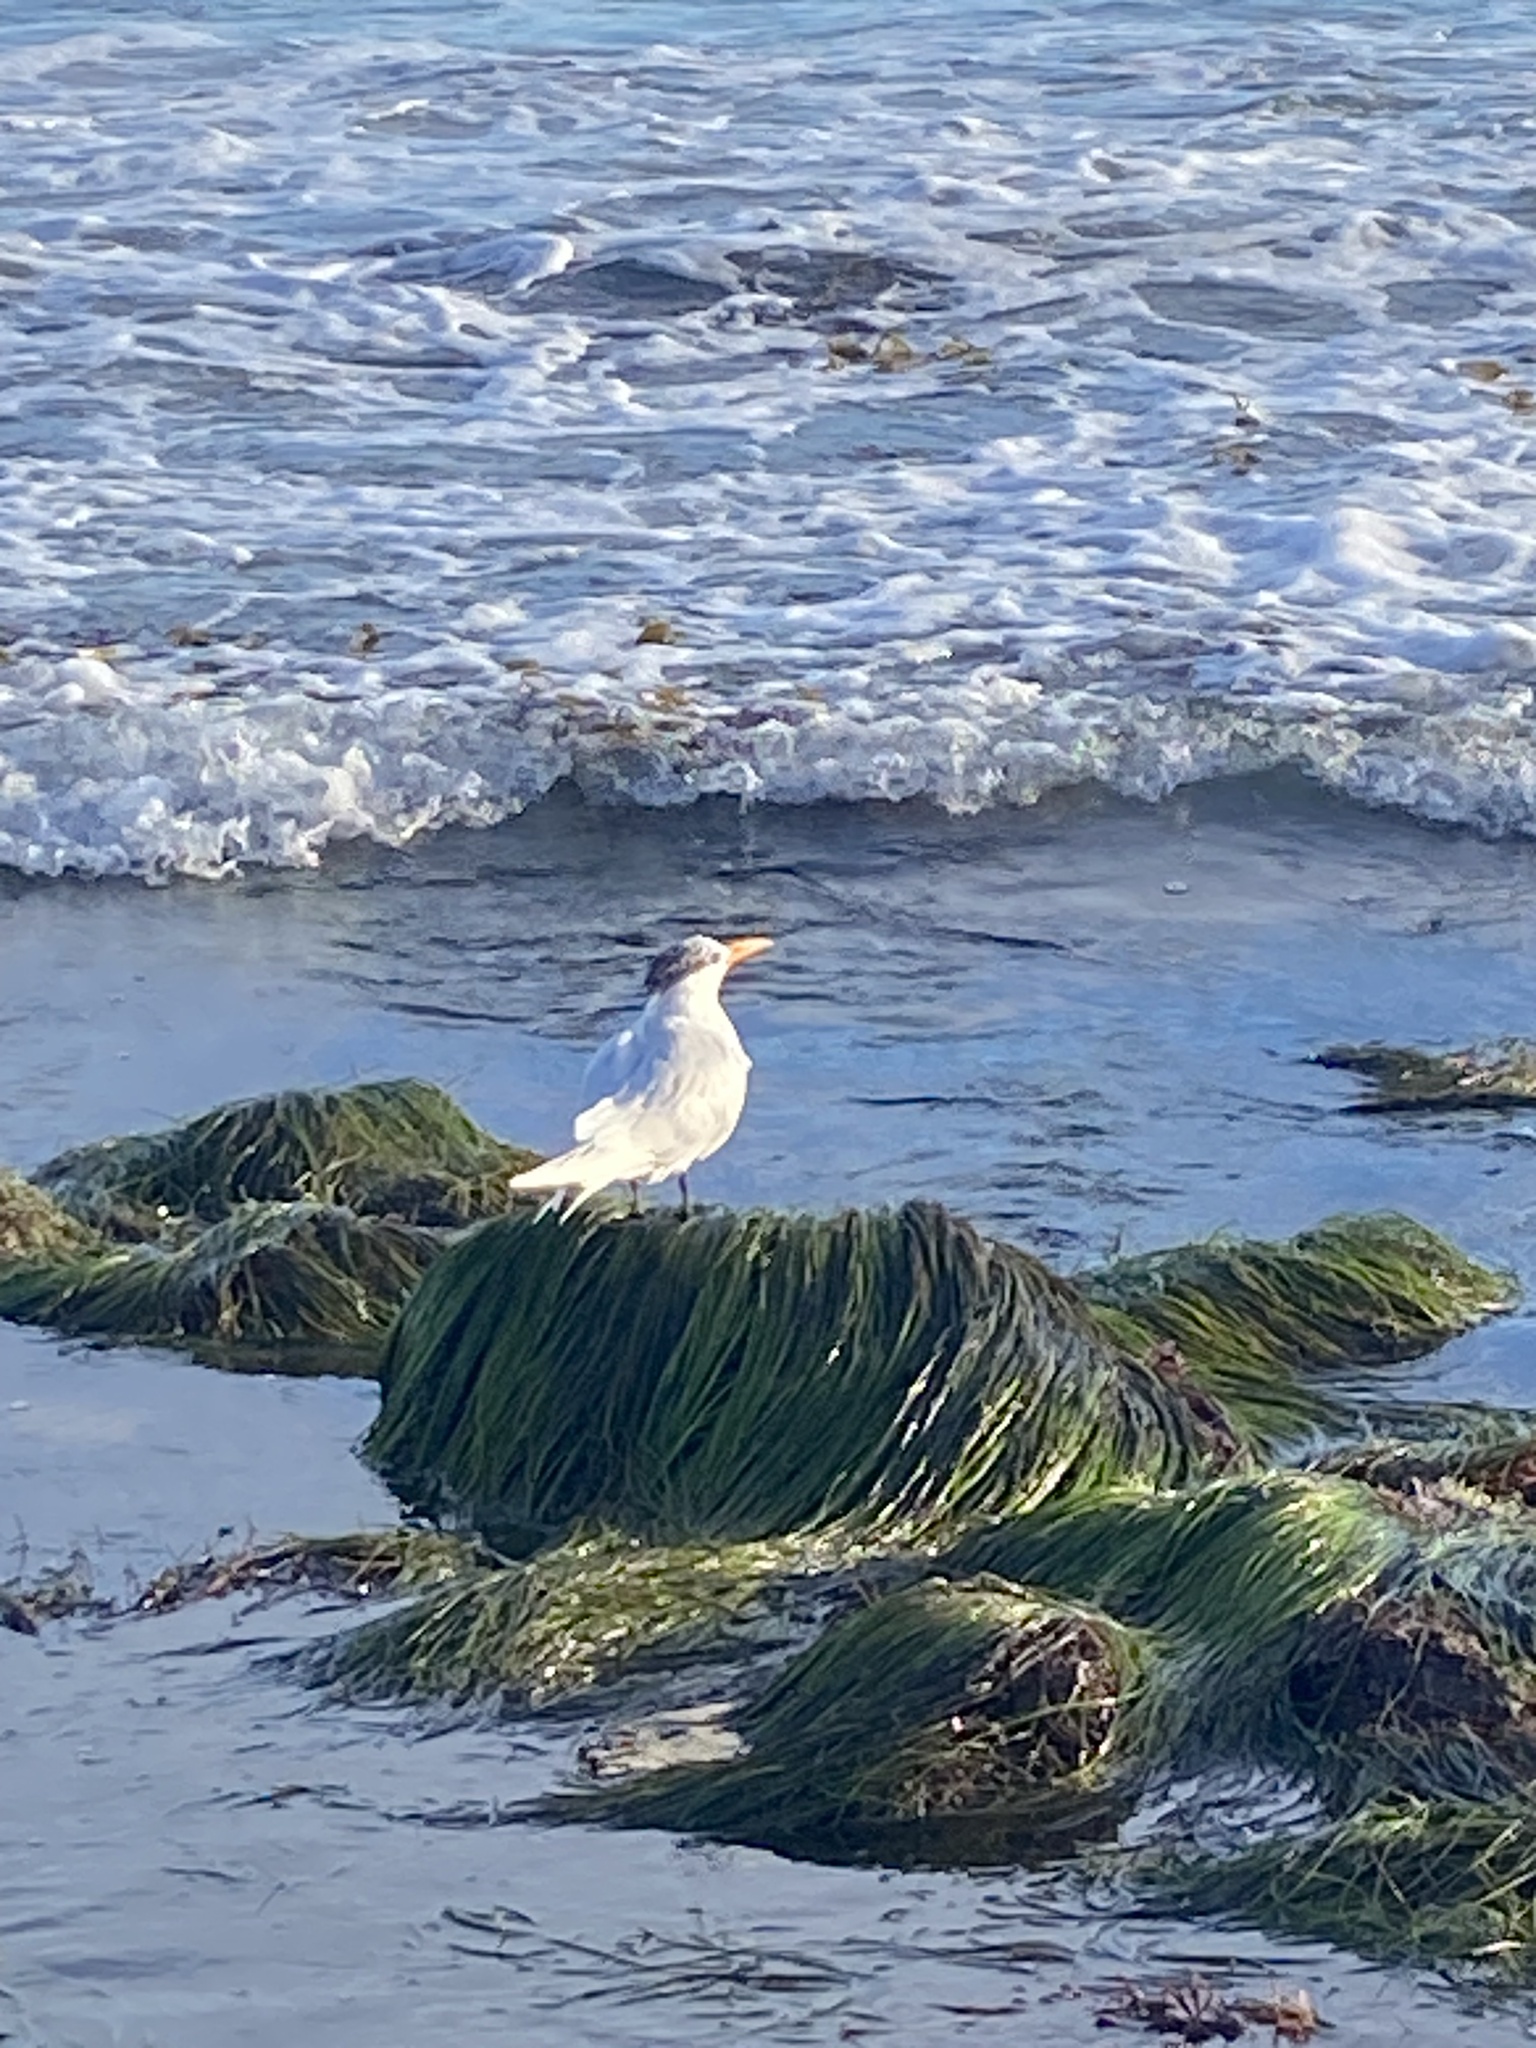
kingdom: Animalia
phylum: Chordata
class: Aves
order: Charadriiformes
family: Laridae
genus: Thalasseus
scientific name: Thalasseus maximus
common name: Royal tern
